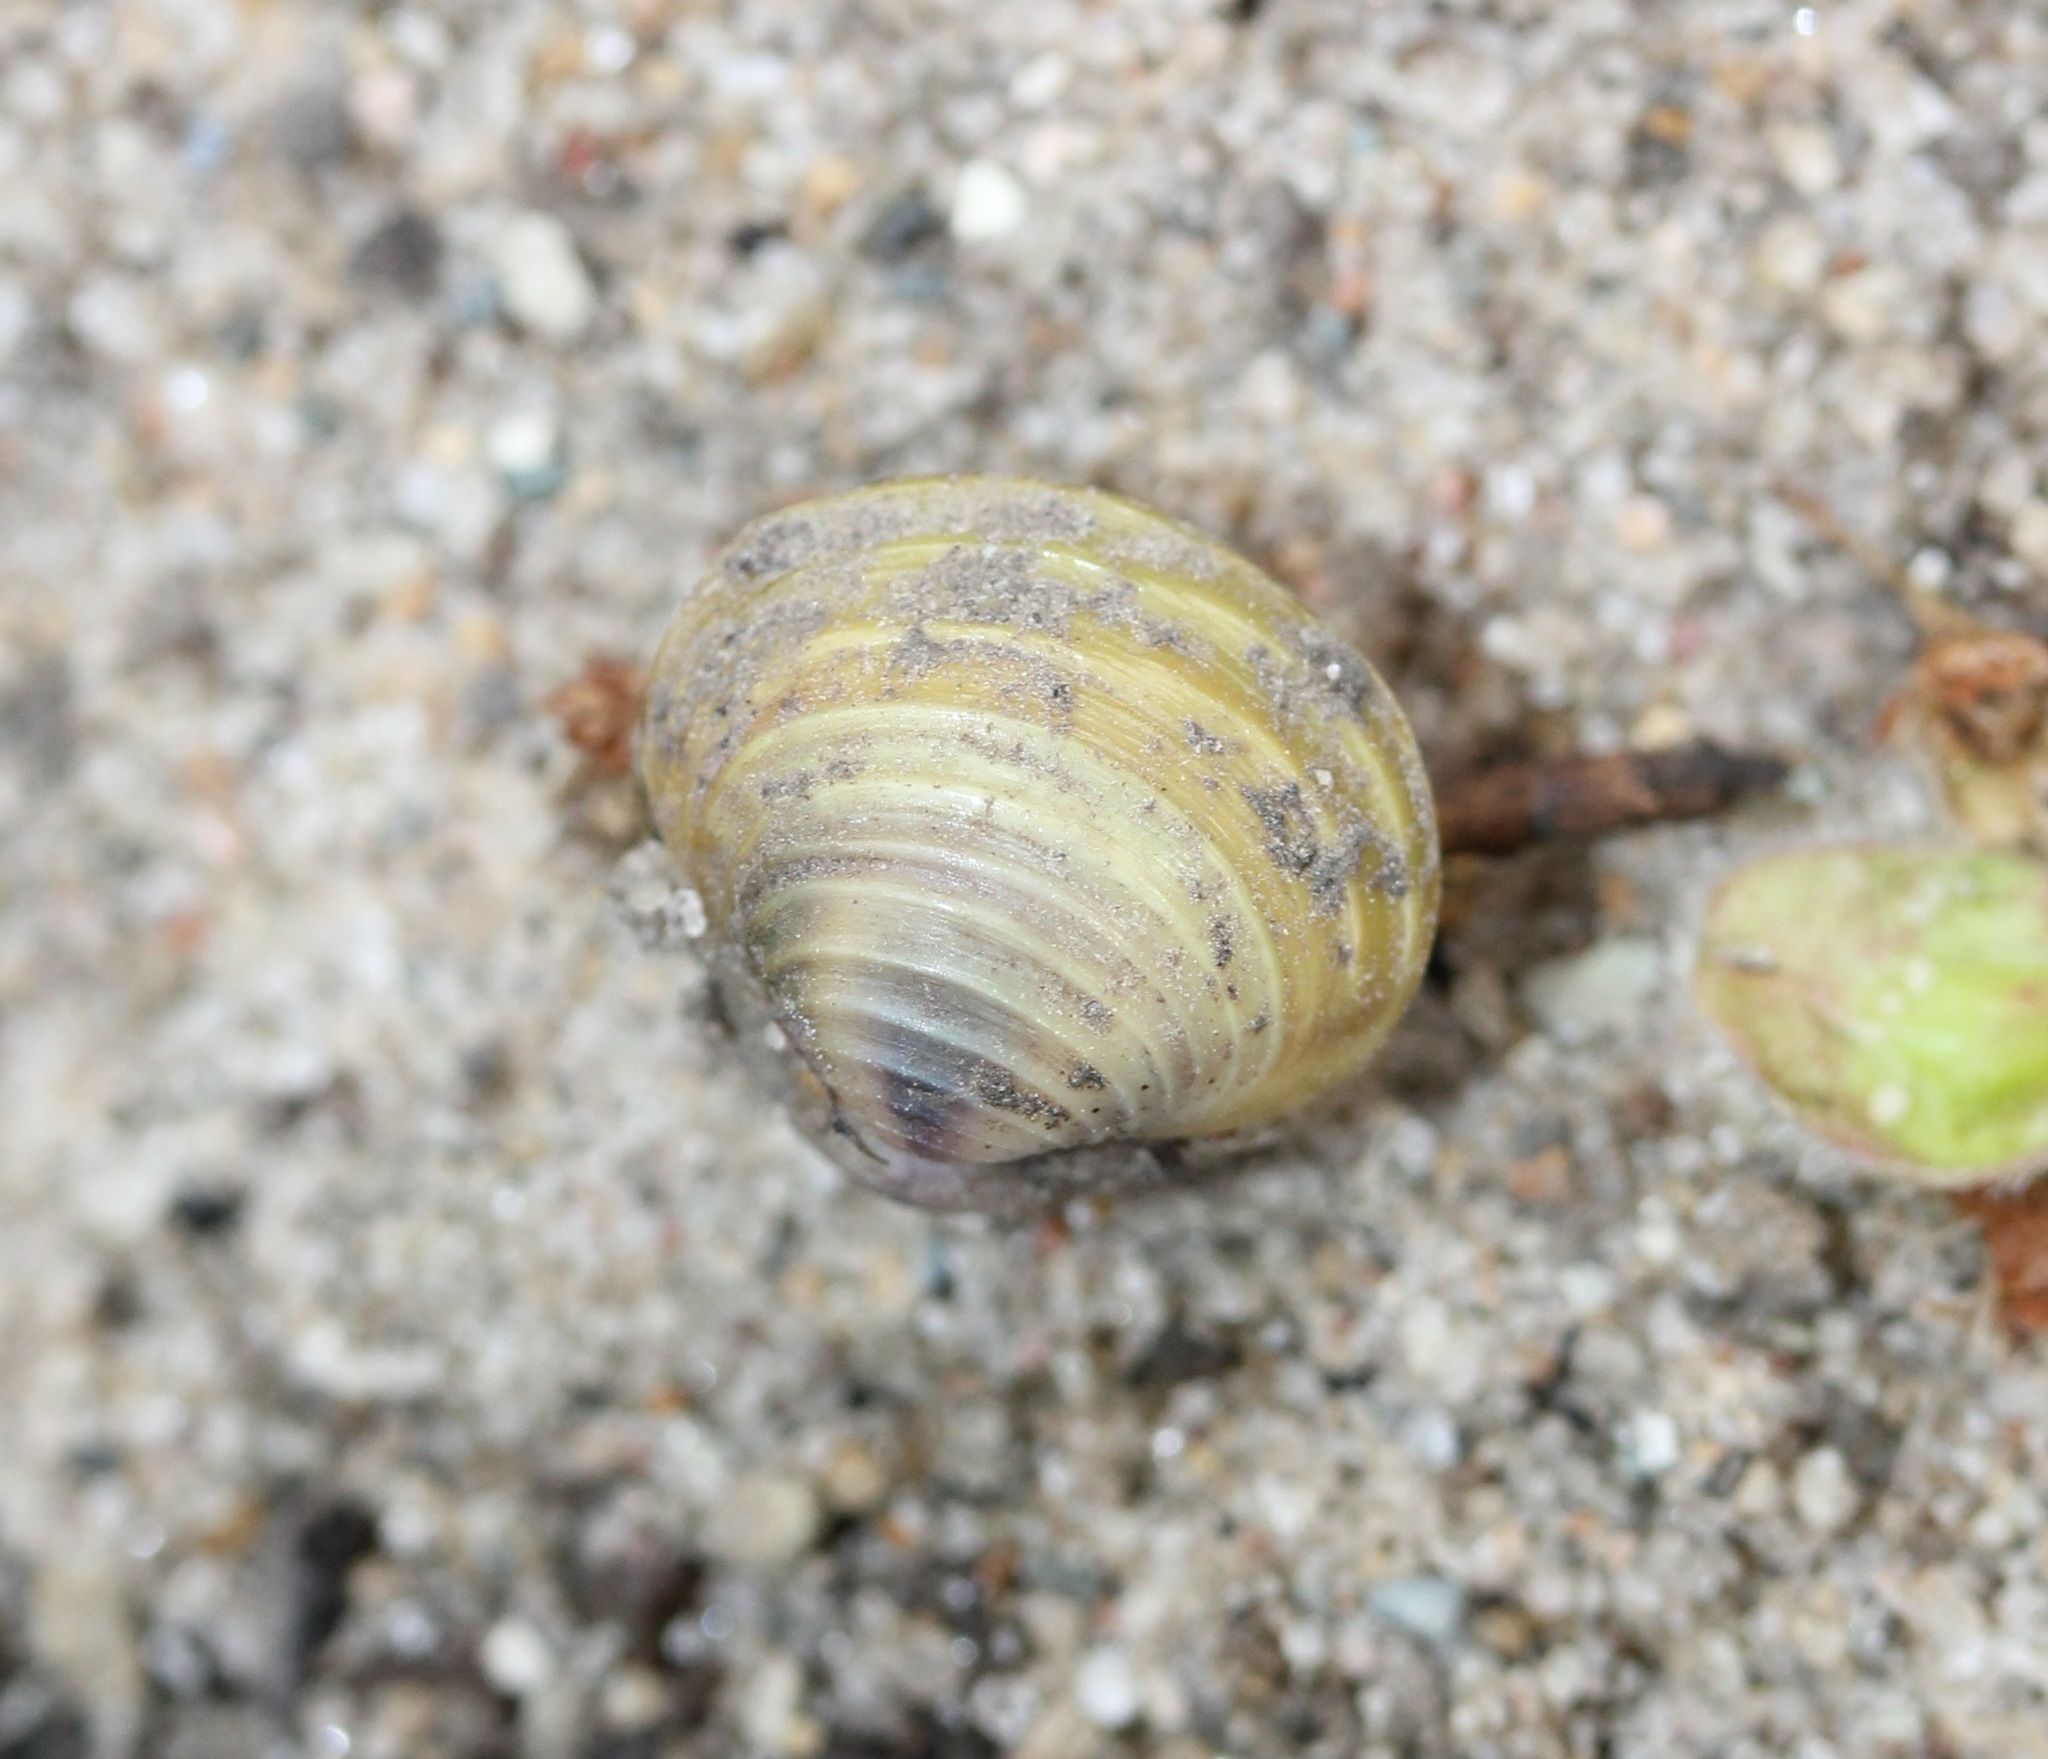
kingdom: Animalia
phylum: Mollusca
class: Bivalvia
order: Venerida
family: Cyrenidae
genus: Corbicula
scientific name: Corbicula fluminea
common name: Asian clam
